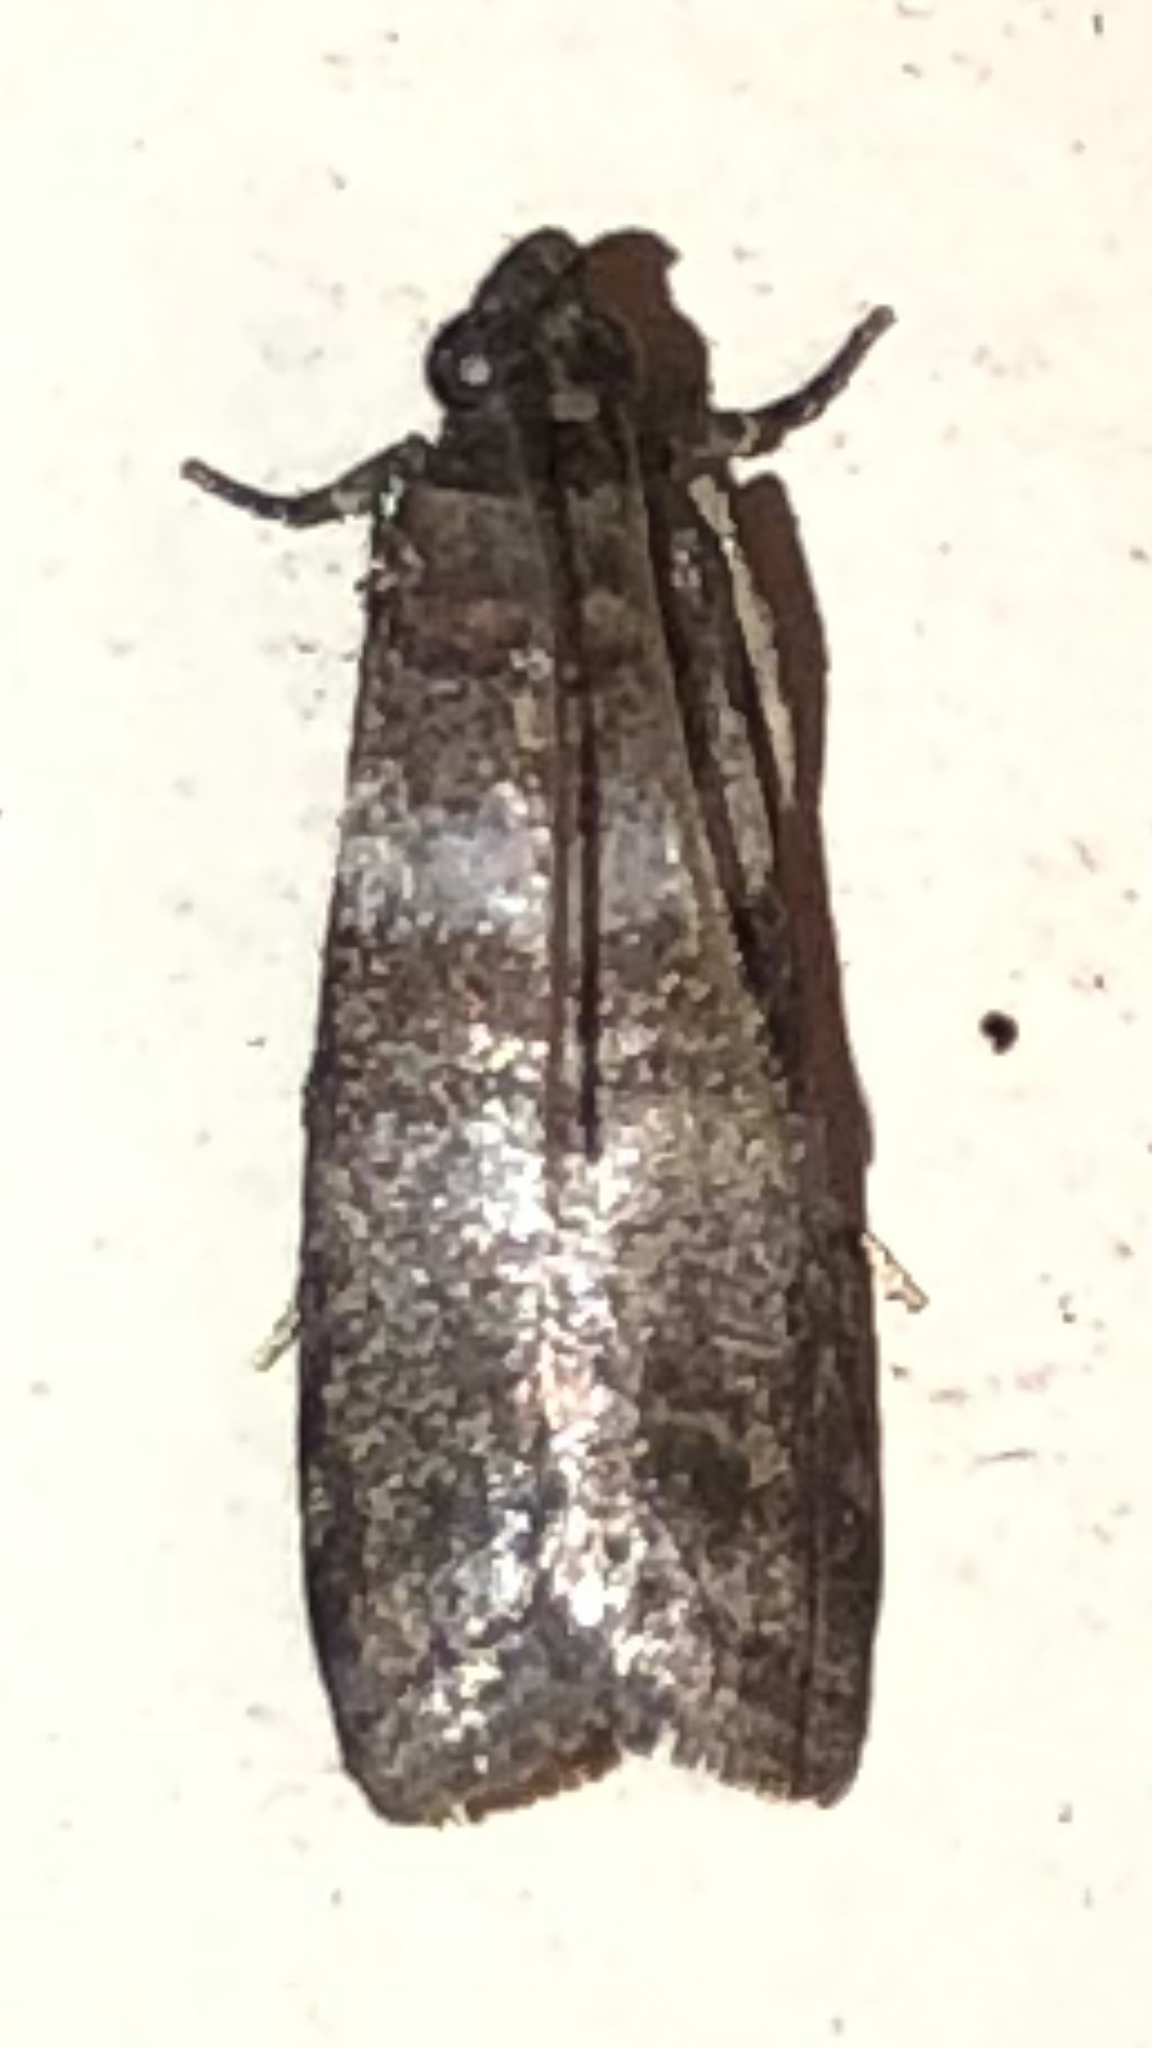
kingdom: Animalia
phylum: Arthropoda
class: Insecta
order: Lepidoptera
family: Pyralidae
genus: Sciota
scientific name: Sciota uvinella
